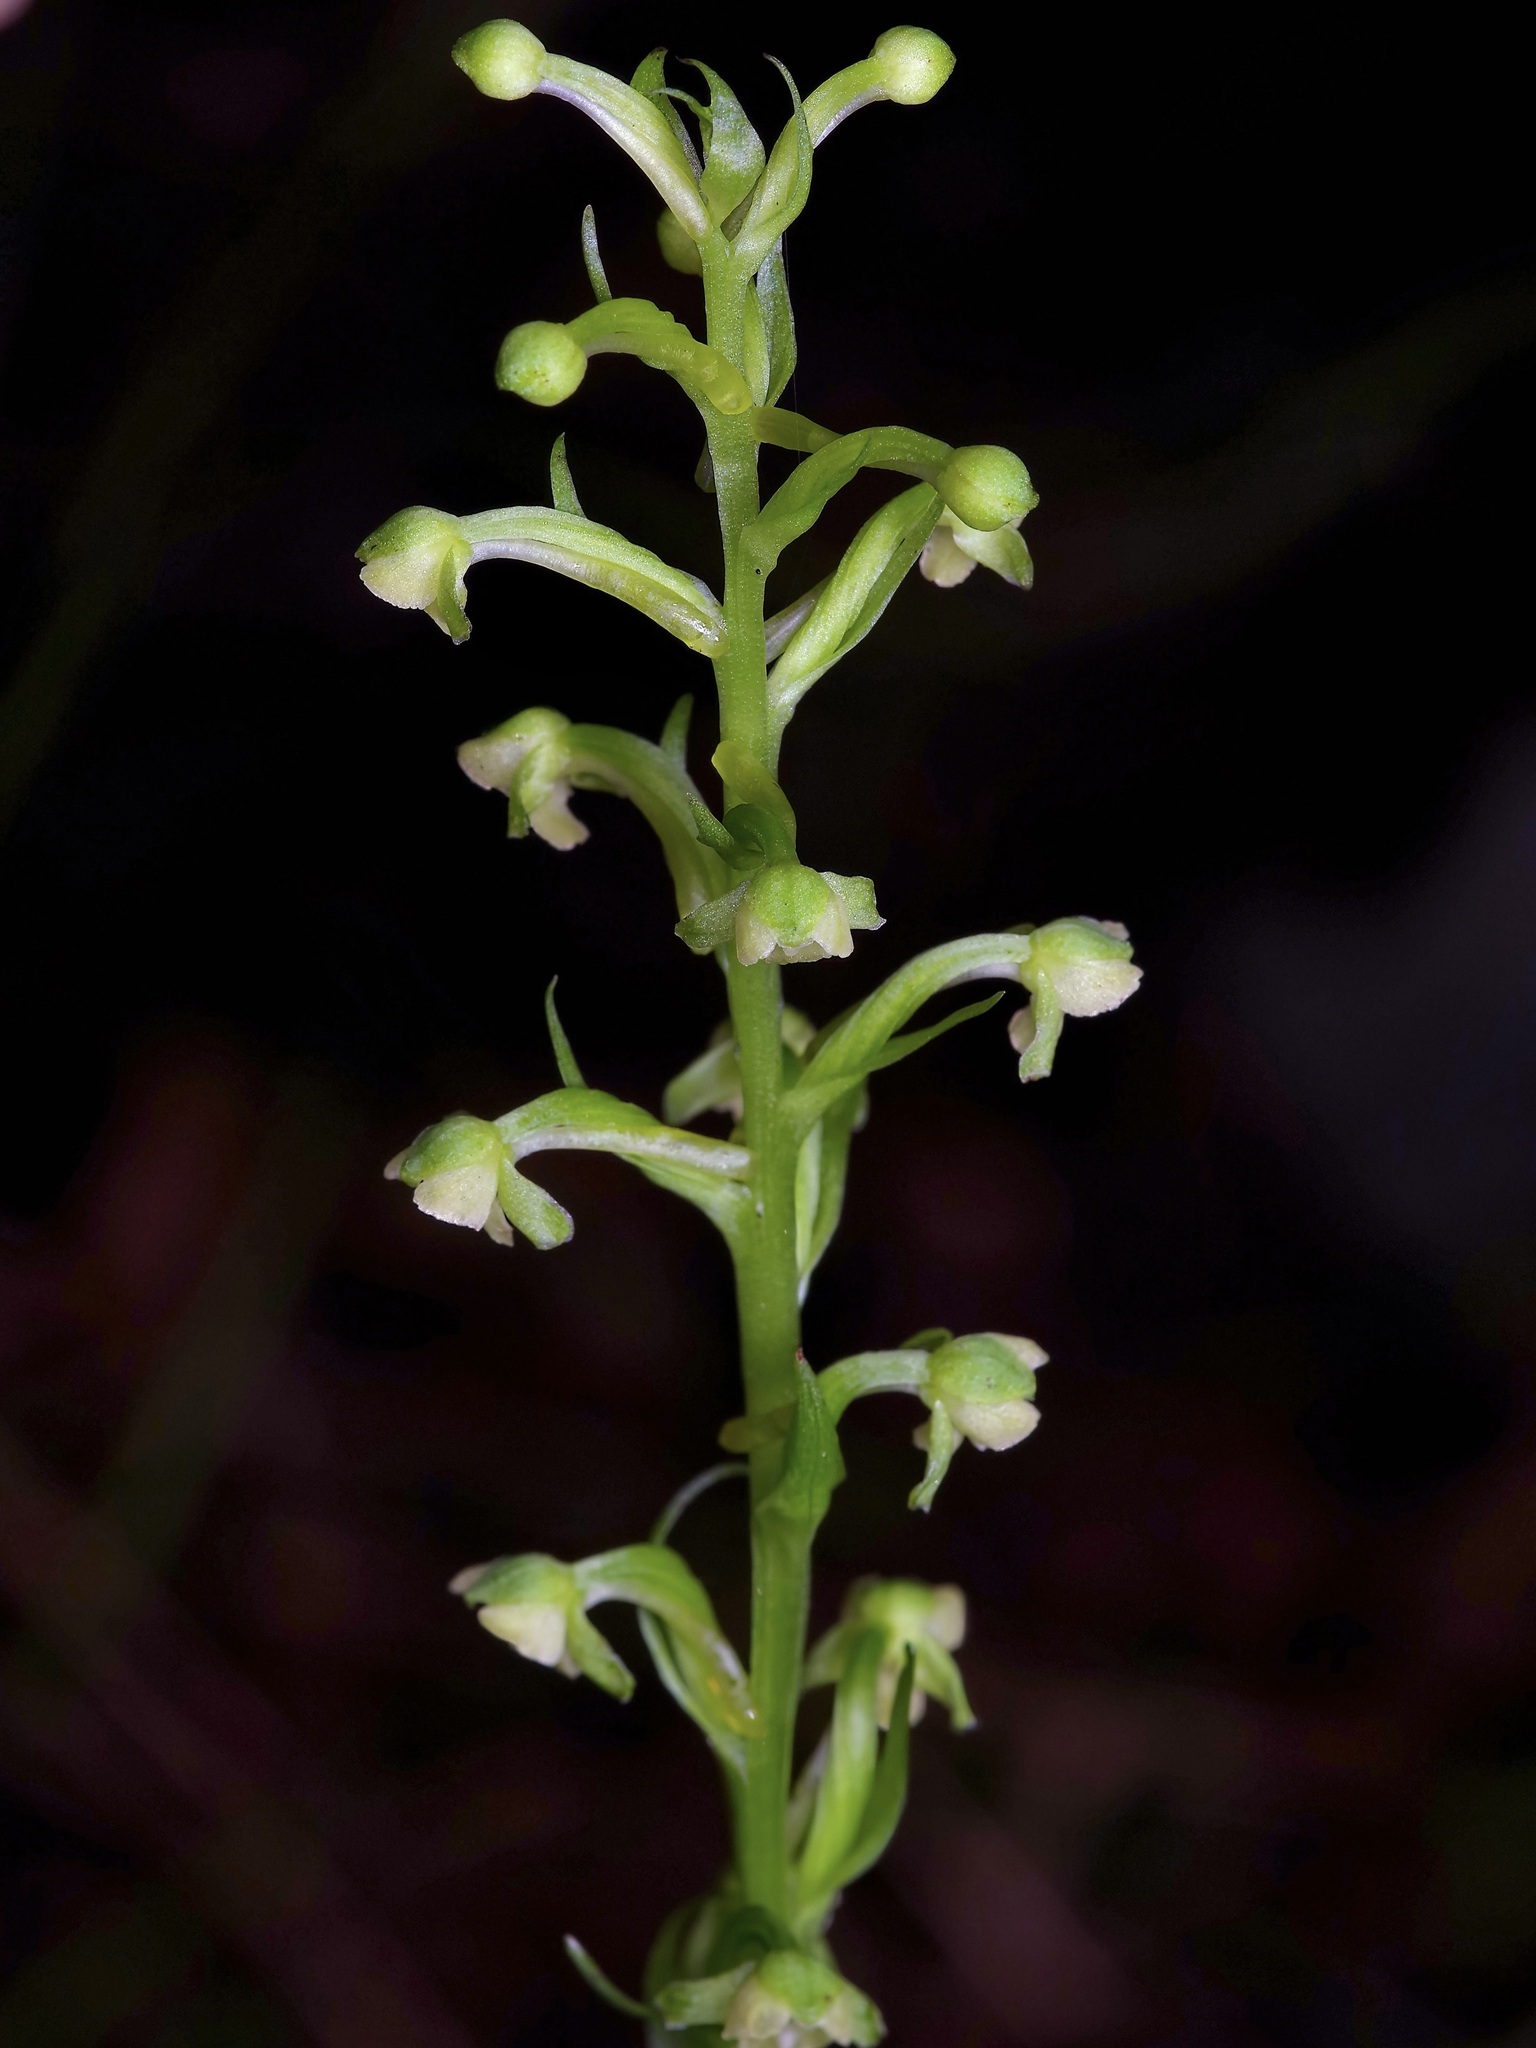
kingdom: Plantae
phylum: Tracheophyta
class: Liliopsida
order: Asparagales
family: Orchidaceae
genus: Platanthera
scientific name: Platanthera flava
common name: Gypsy-spikes
